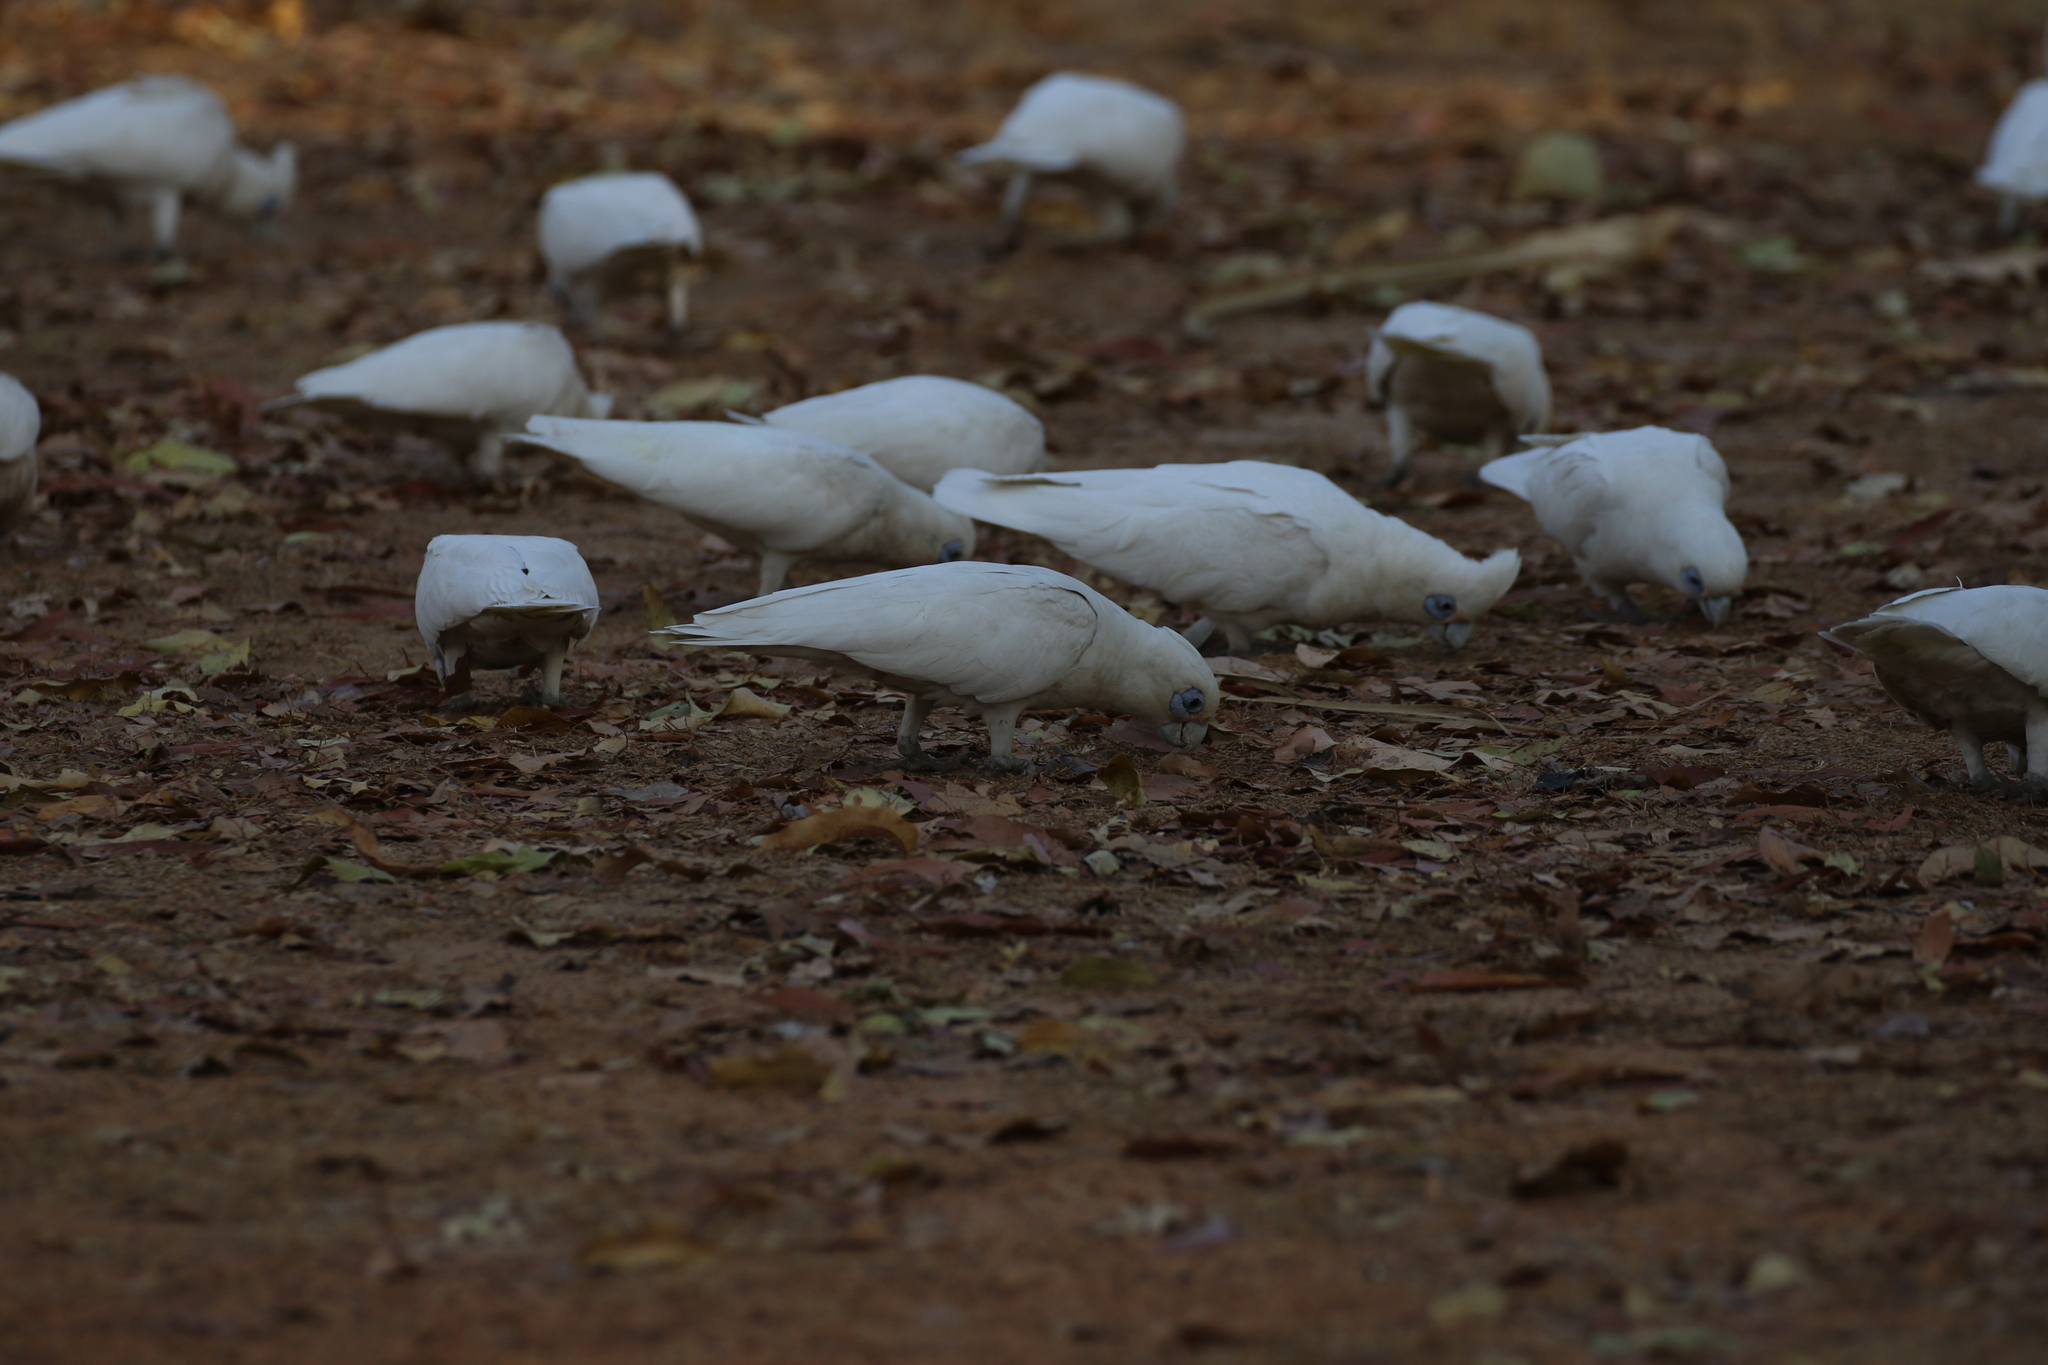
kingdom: Animalia
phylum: Chordata
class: Aves
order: Psittaciformes
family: Psittacidae
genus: Cacatua
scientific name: Cacatua sanguinea
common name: Little corella
